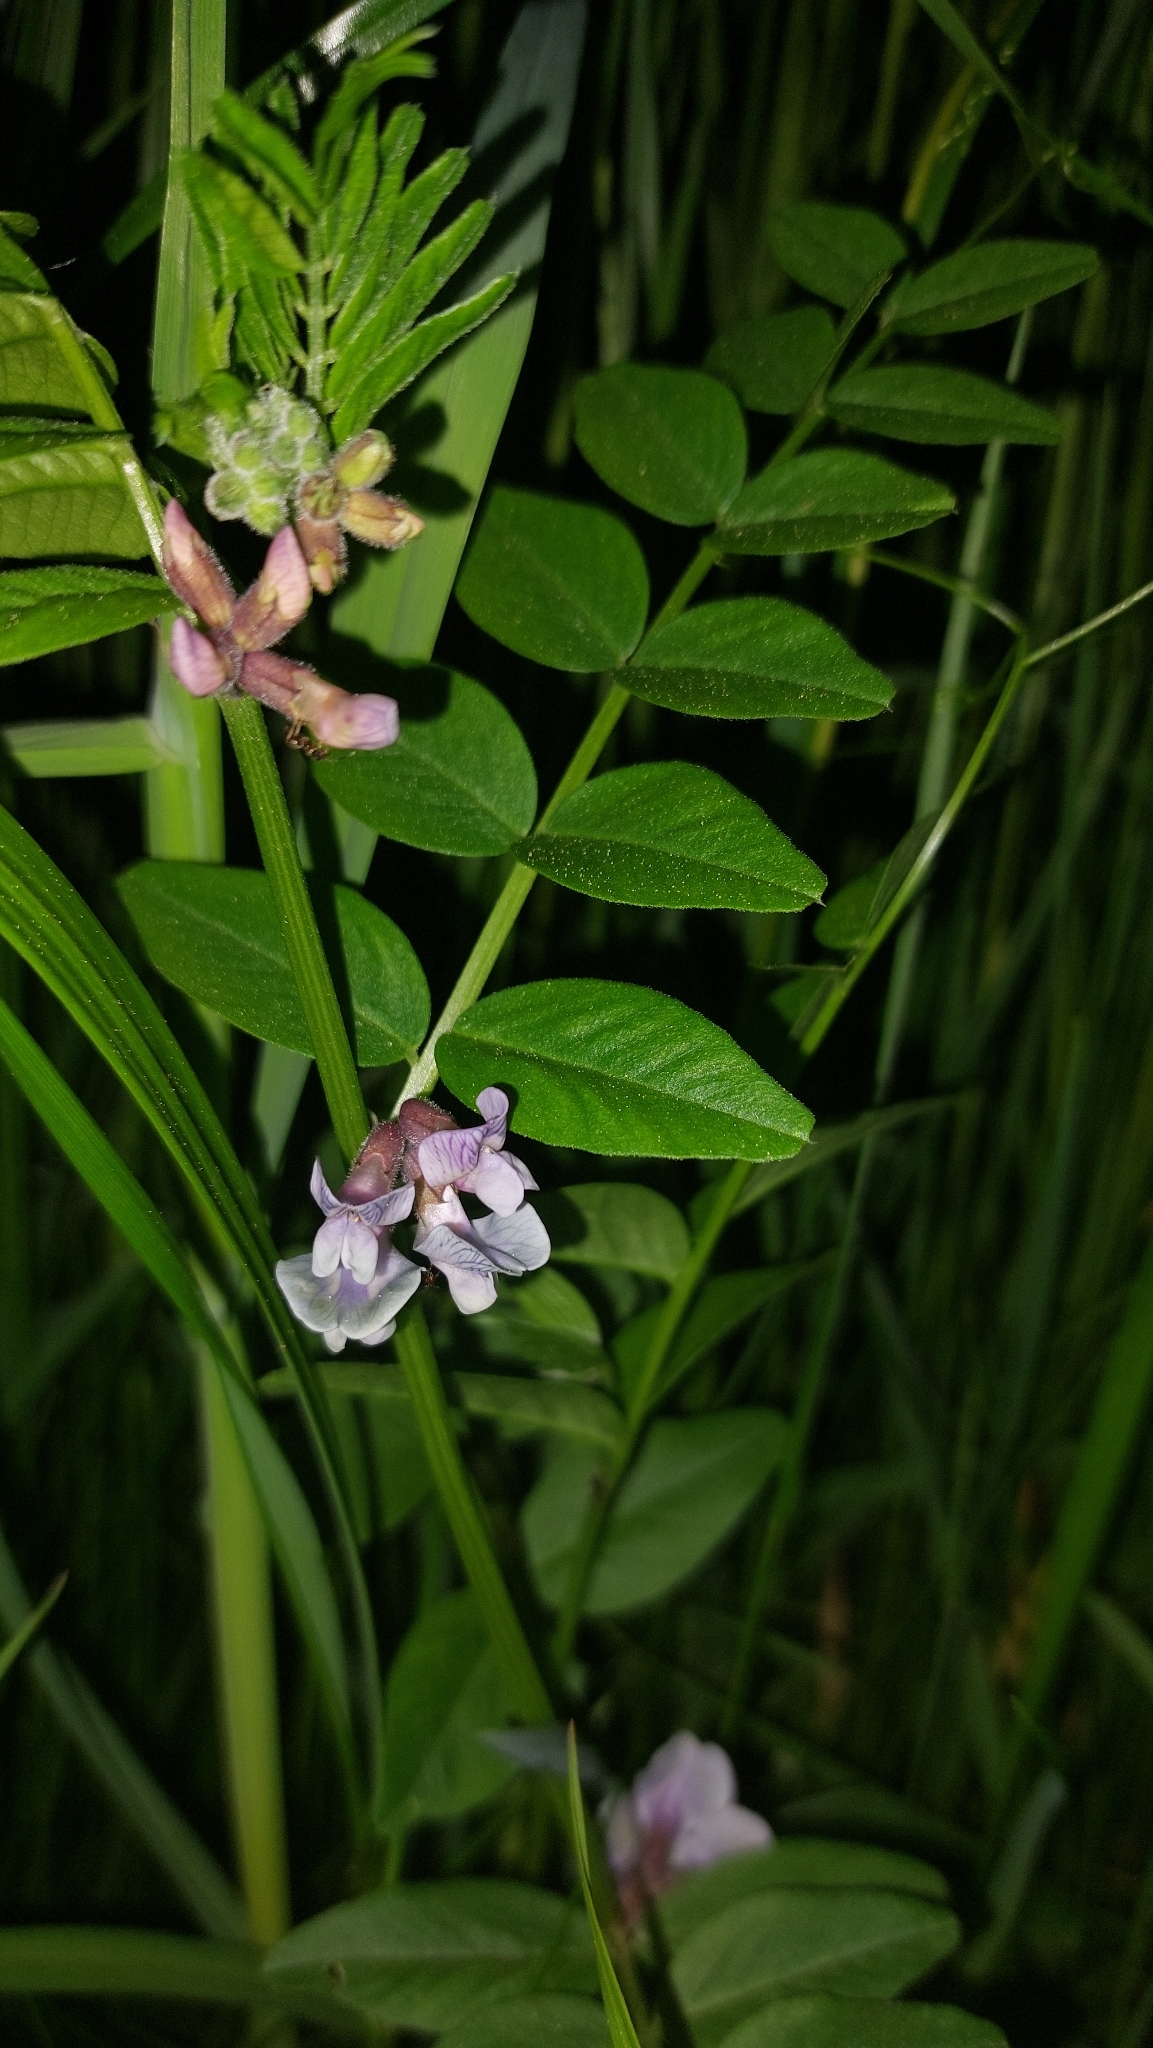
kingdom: Plantae
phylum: Tracheophyta
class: Magnoliopsida
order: Fabales
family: Fabaceae
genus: Vicia
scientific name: Vicia sepium
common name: Bush vetch
